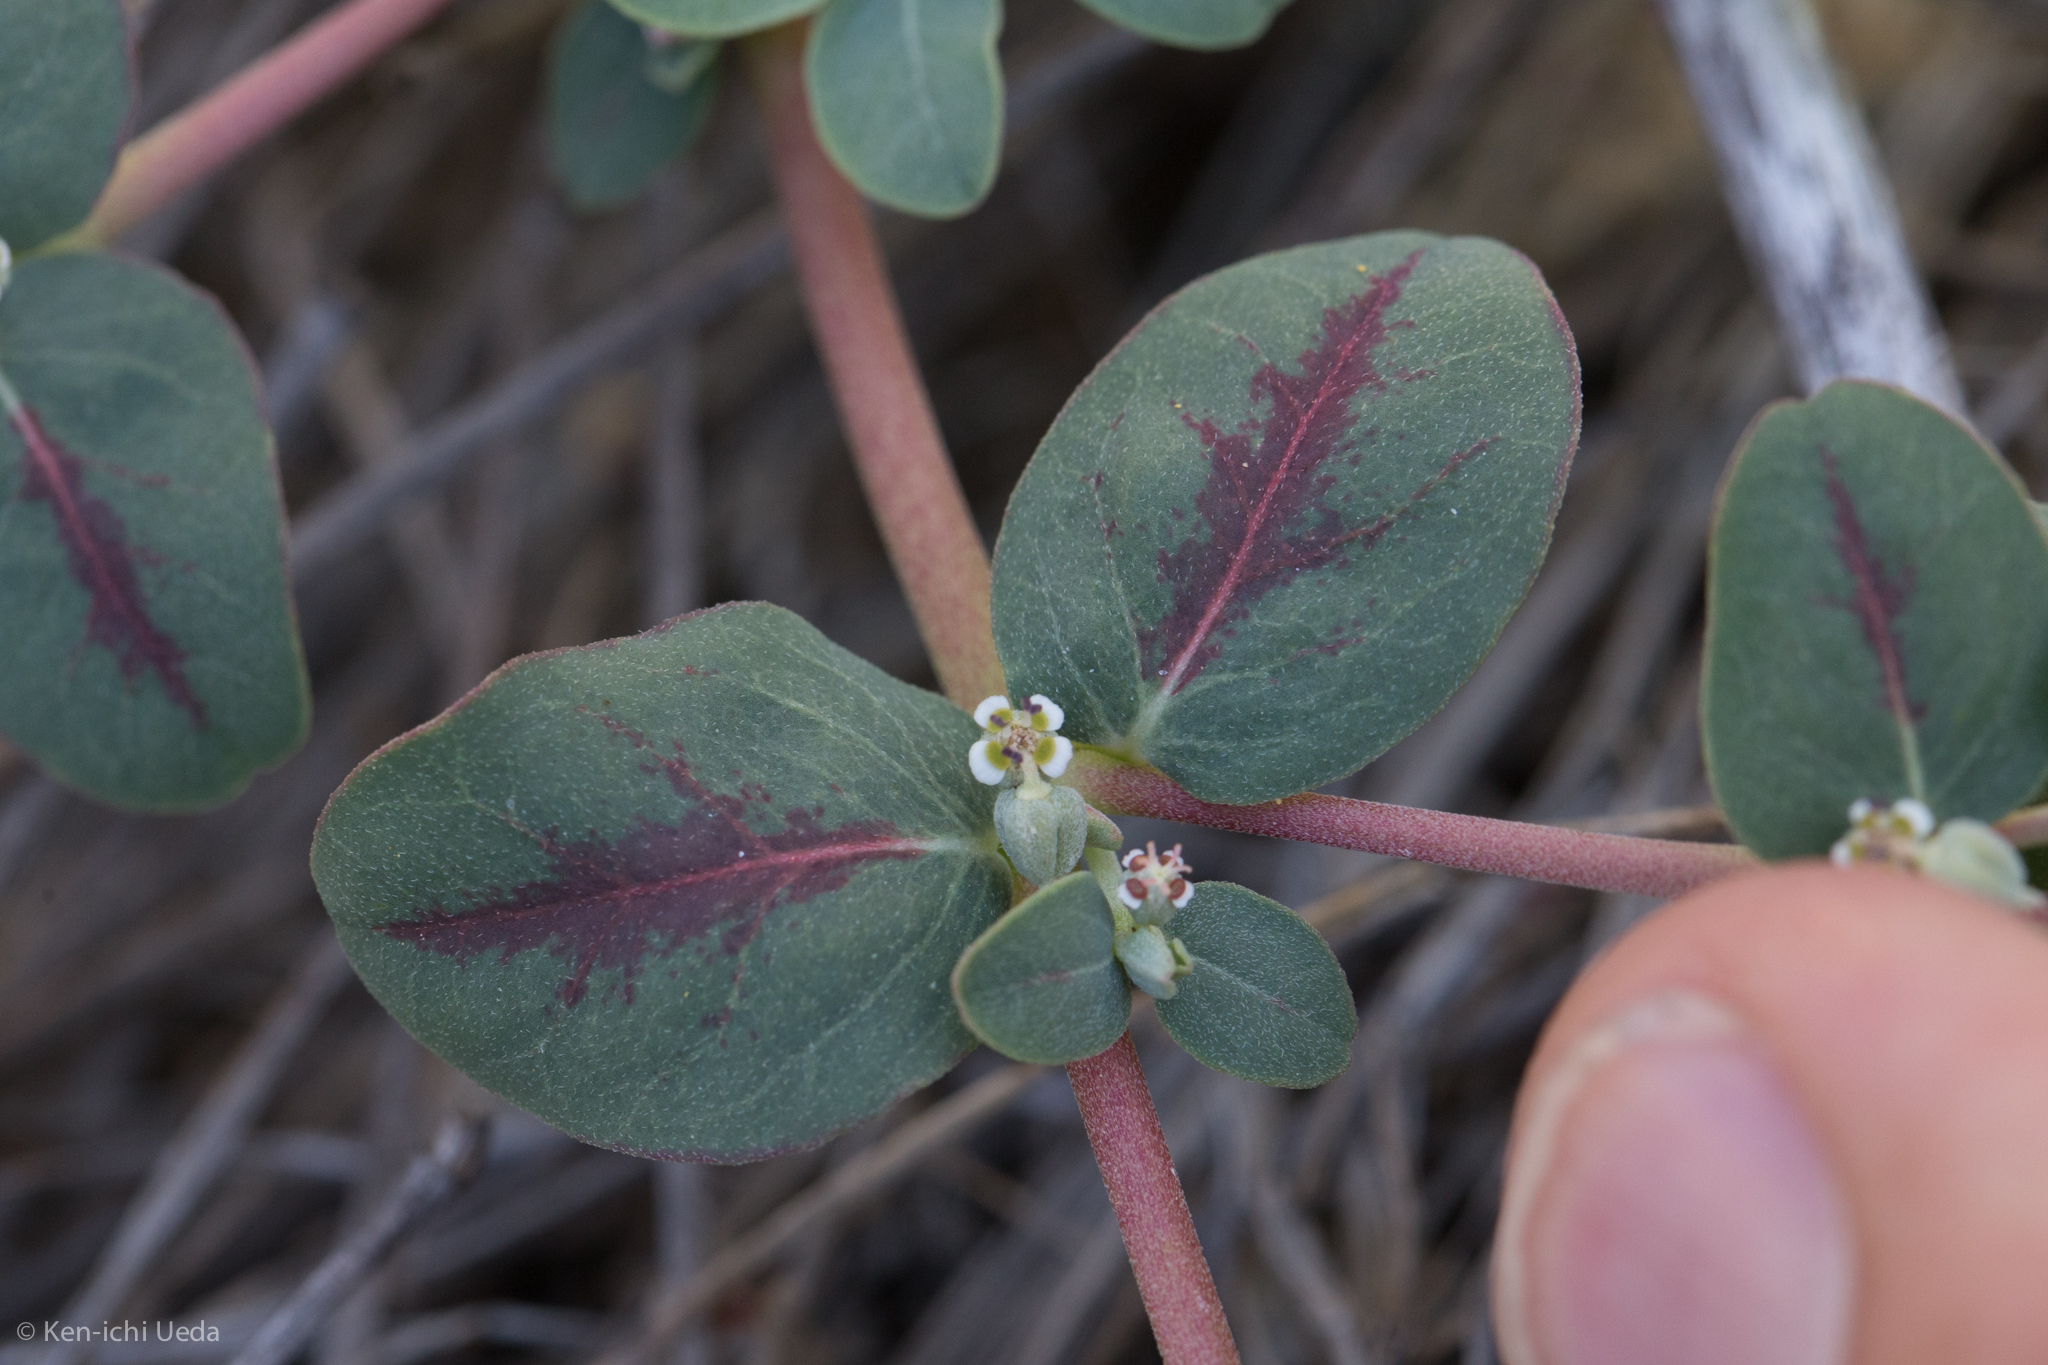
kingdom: Plantae
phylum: Tracheophyta
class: Magnoliopsida
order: Malpighiales
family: Euphorbiaceae
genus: Euphorbia
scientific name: Euphorbia pediculifera
